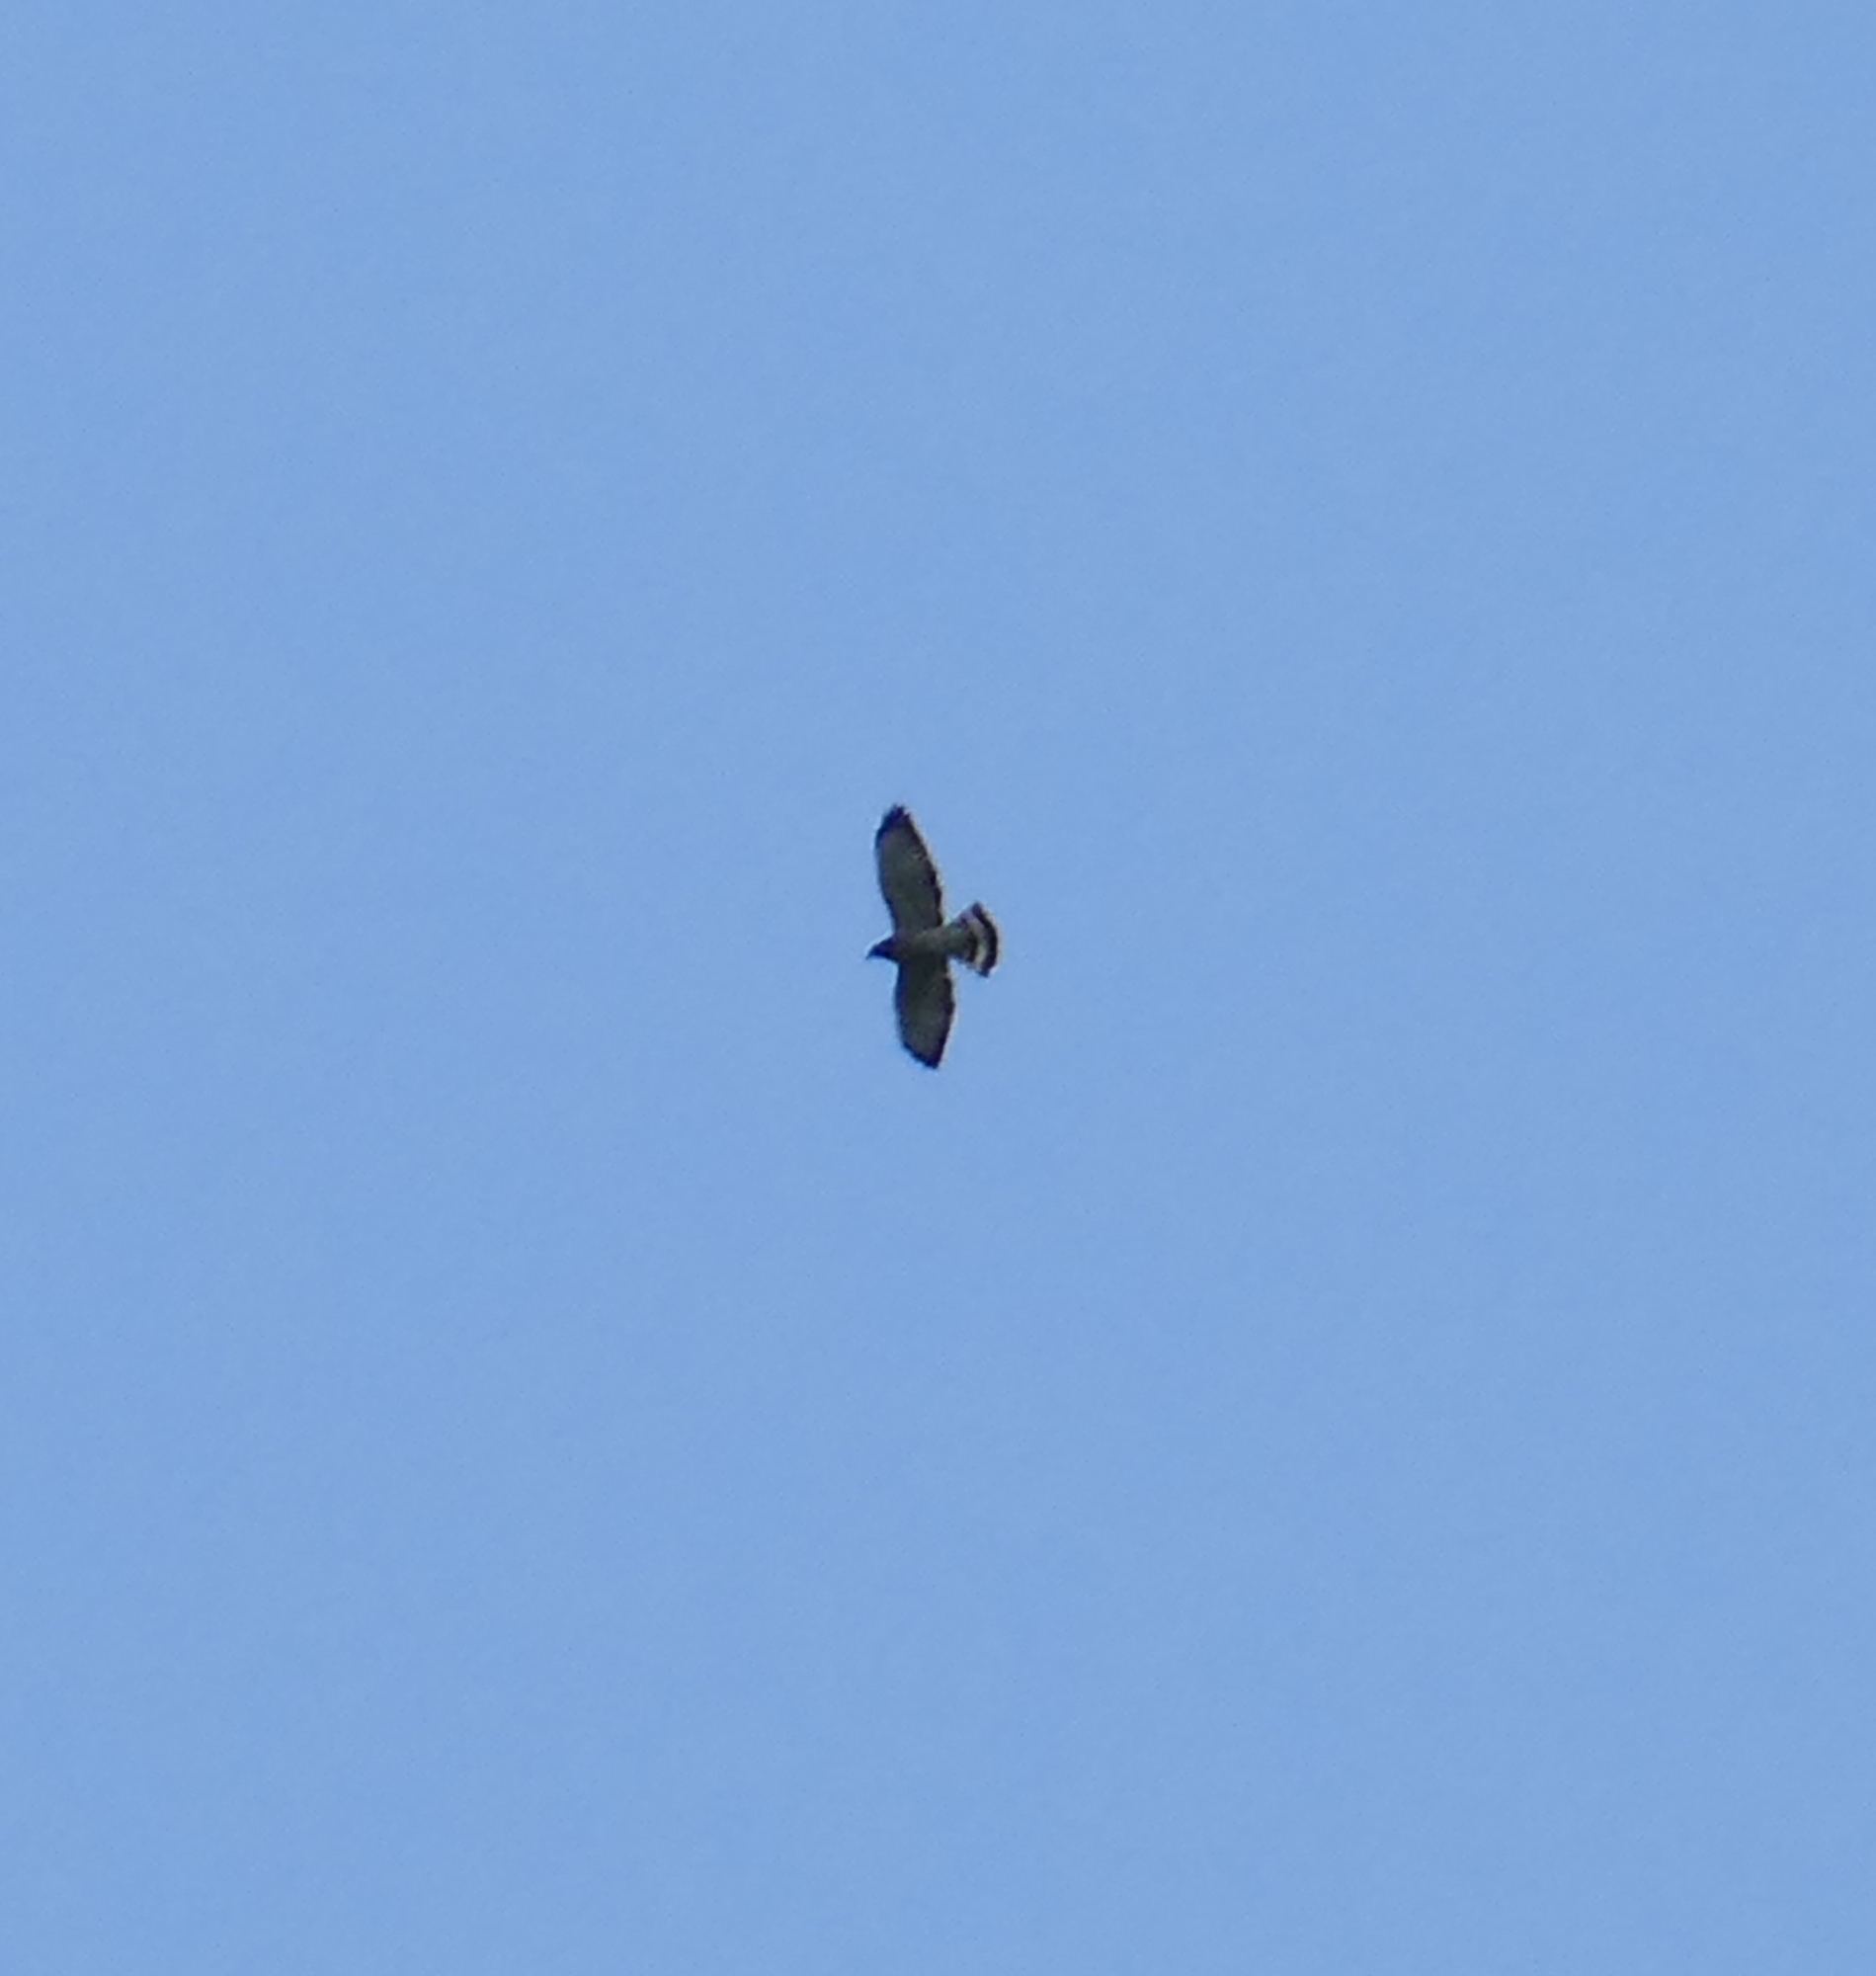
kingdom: Animalia
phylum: Chordata
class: Aves
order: Accipitriformes
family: Accipitridae
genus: Buteo
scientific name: Buteo platypterus
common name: Broad-winged hawk
